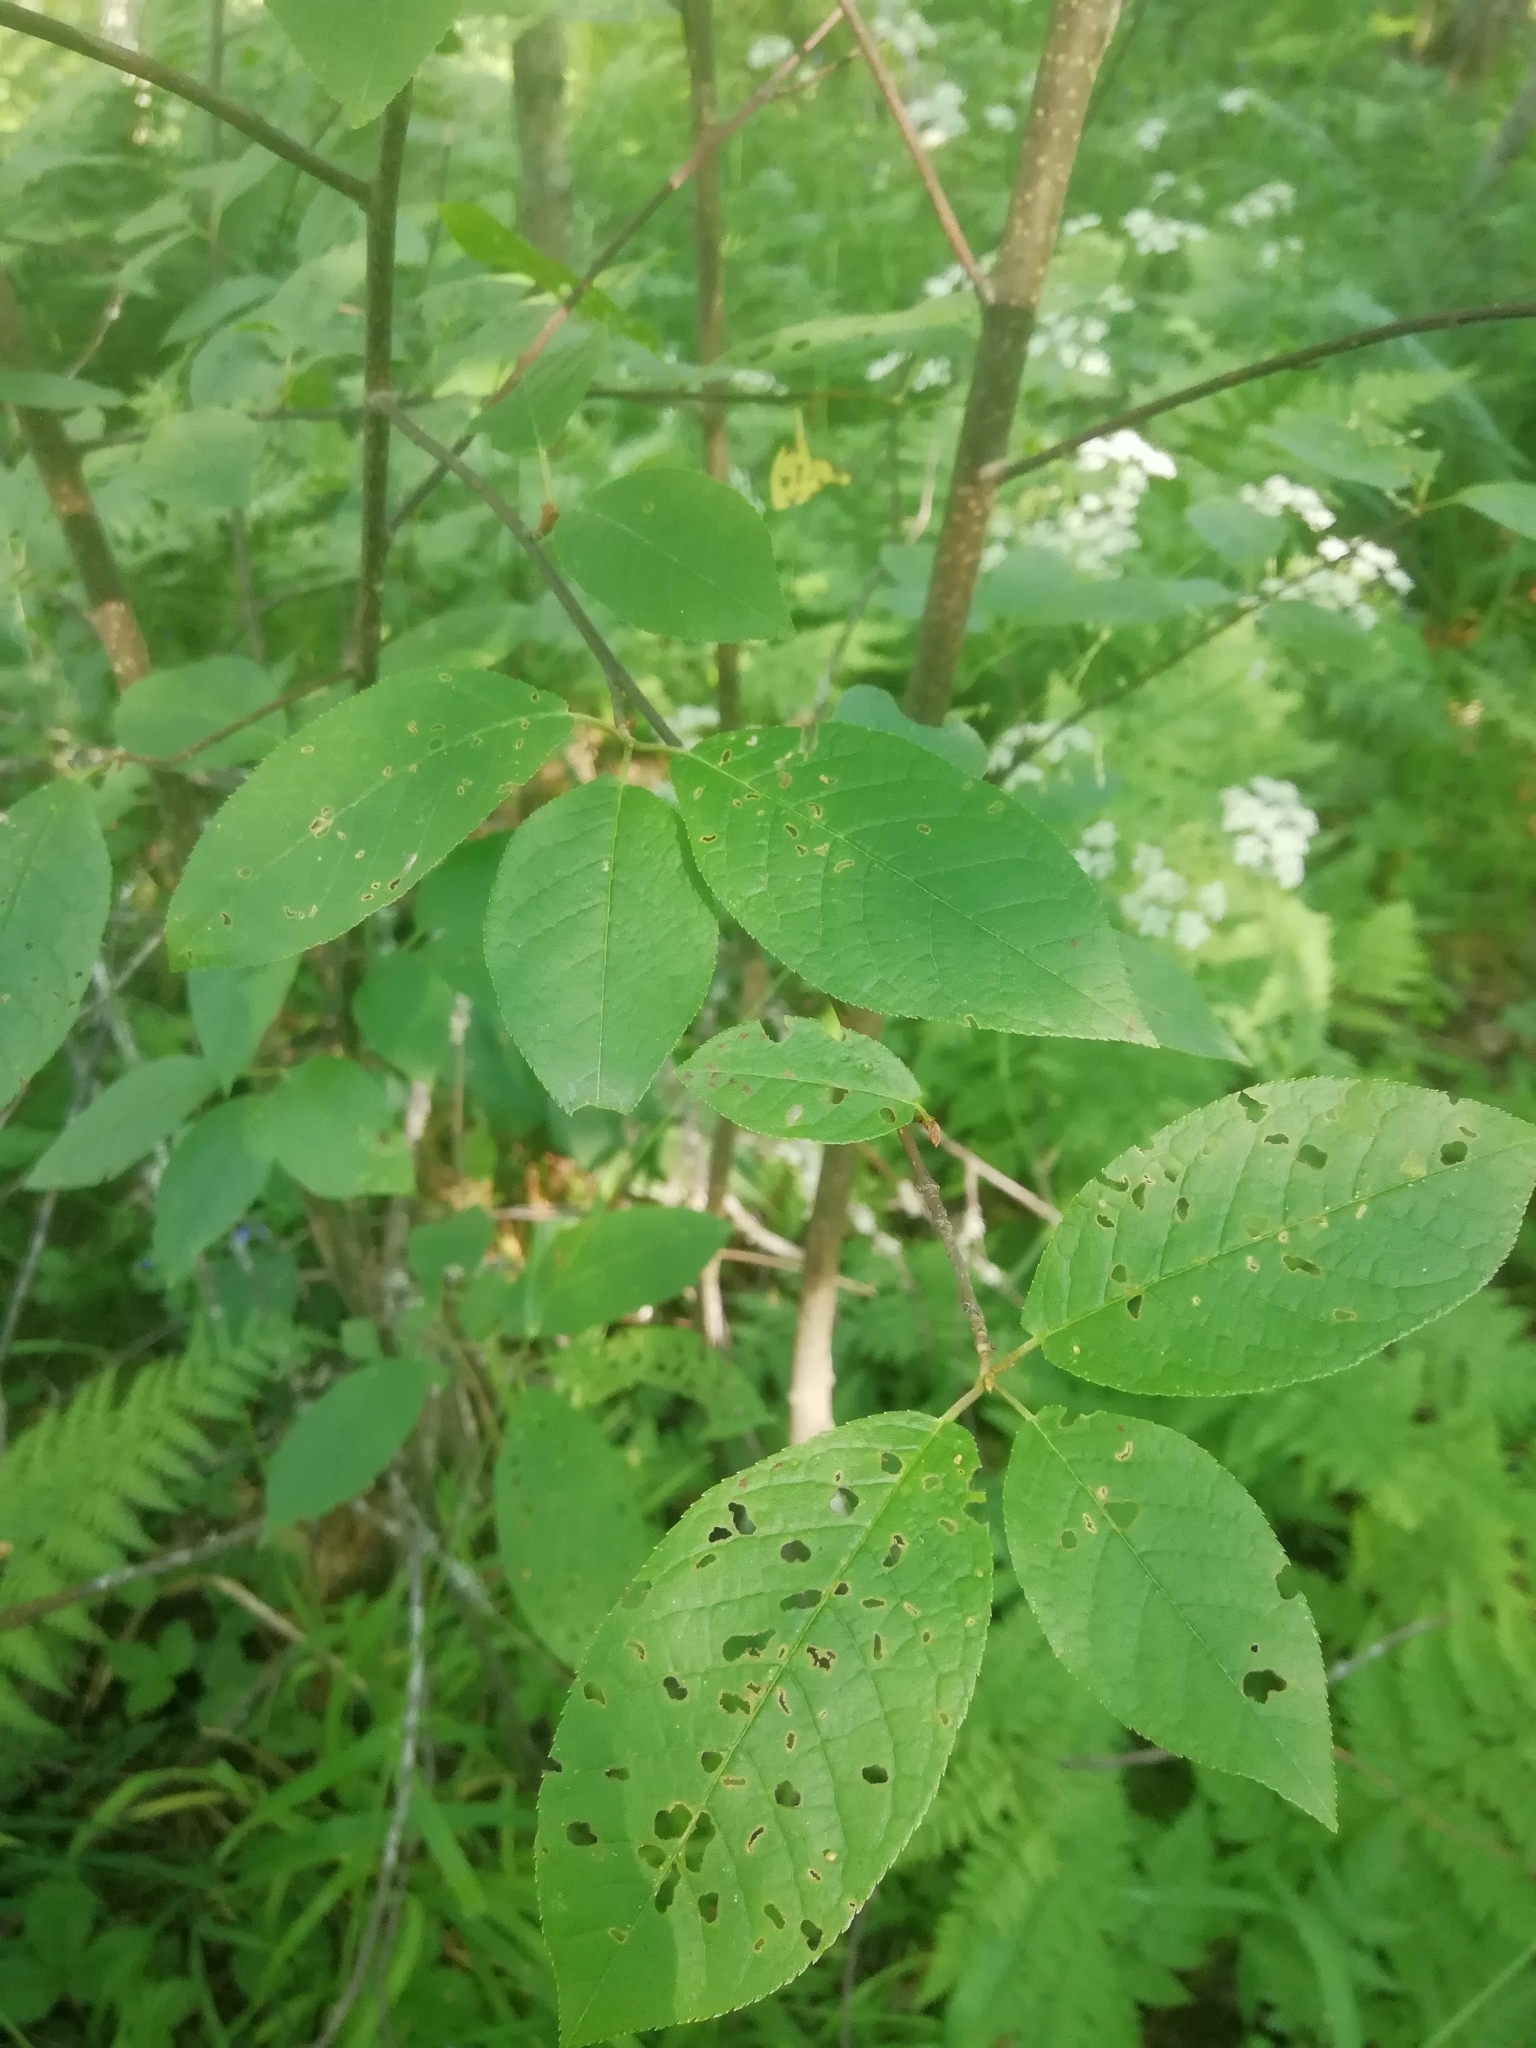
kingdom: Plantae
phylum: Tracheophyta
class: Magnoliopsida
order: Rosales
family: Rosaceae
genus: Prunus
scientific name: Prunus padus
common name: Bird cherry
